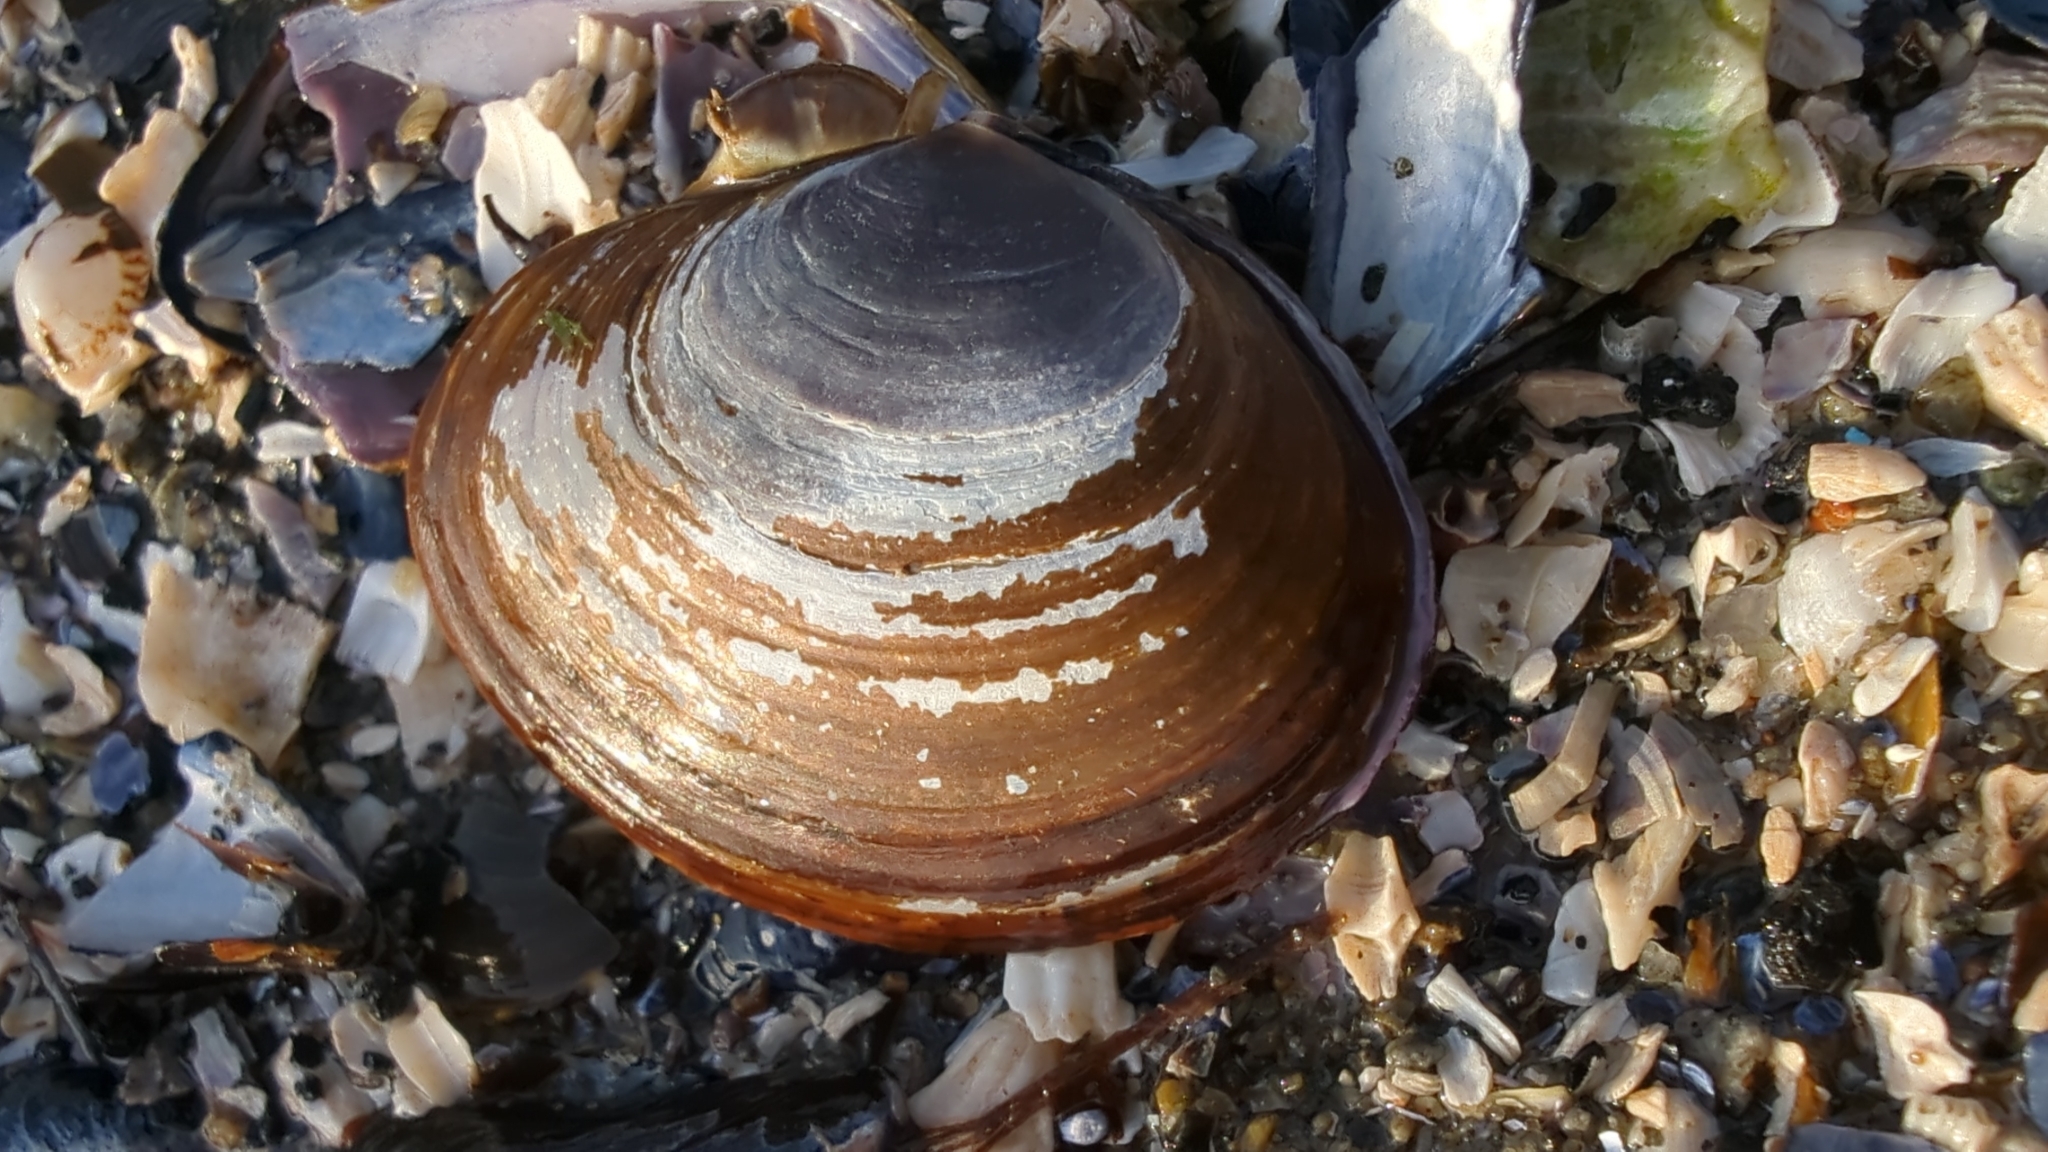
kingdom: Animalia
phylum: Mollusca
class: Bivalvia
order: Cardiida
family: Psammobiidae
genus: Nuttallia
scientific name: Nuttallia obscurata
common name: Purple mahogany-clam
